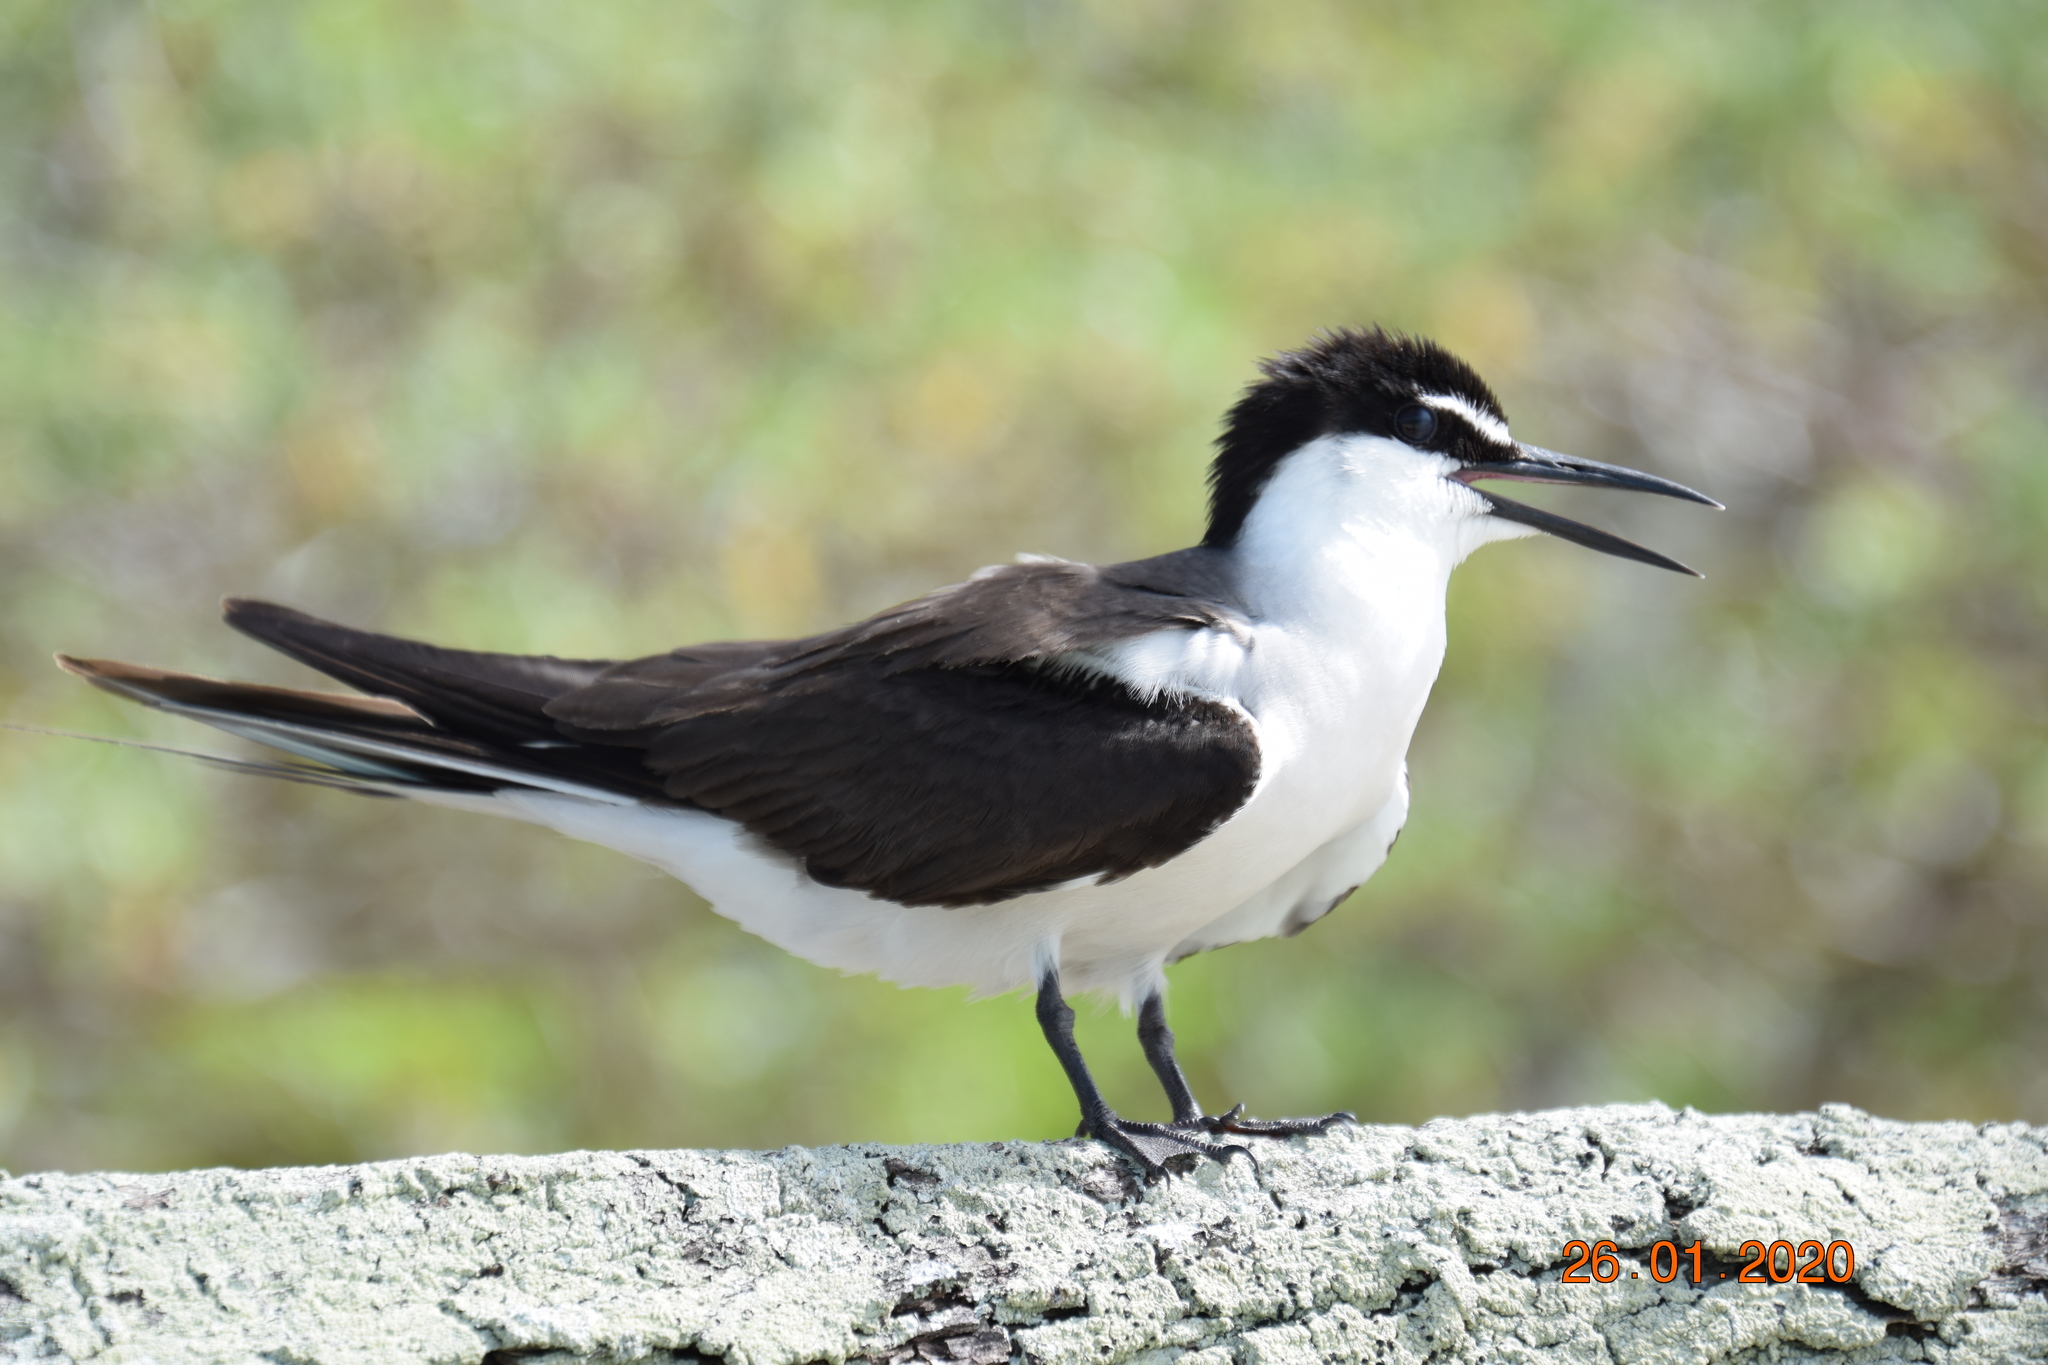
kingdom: Animalia
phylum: Chordata
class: Aves
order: Charadriiformes
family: Laridae
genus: Onychoprion
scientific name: Onychoprion anaethetus
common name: Bridled tern
